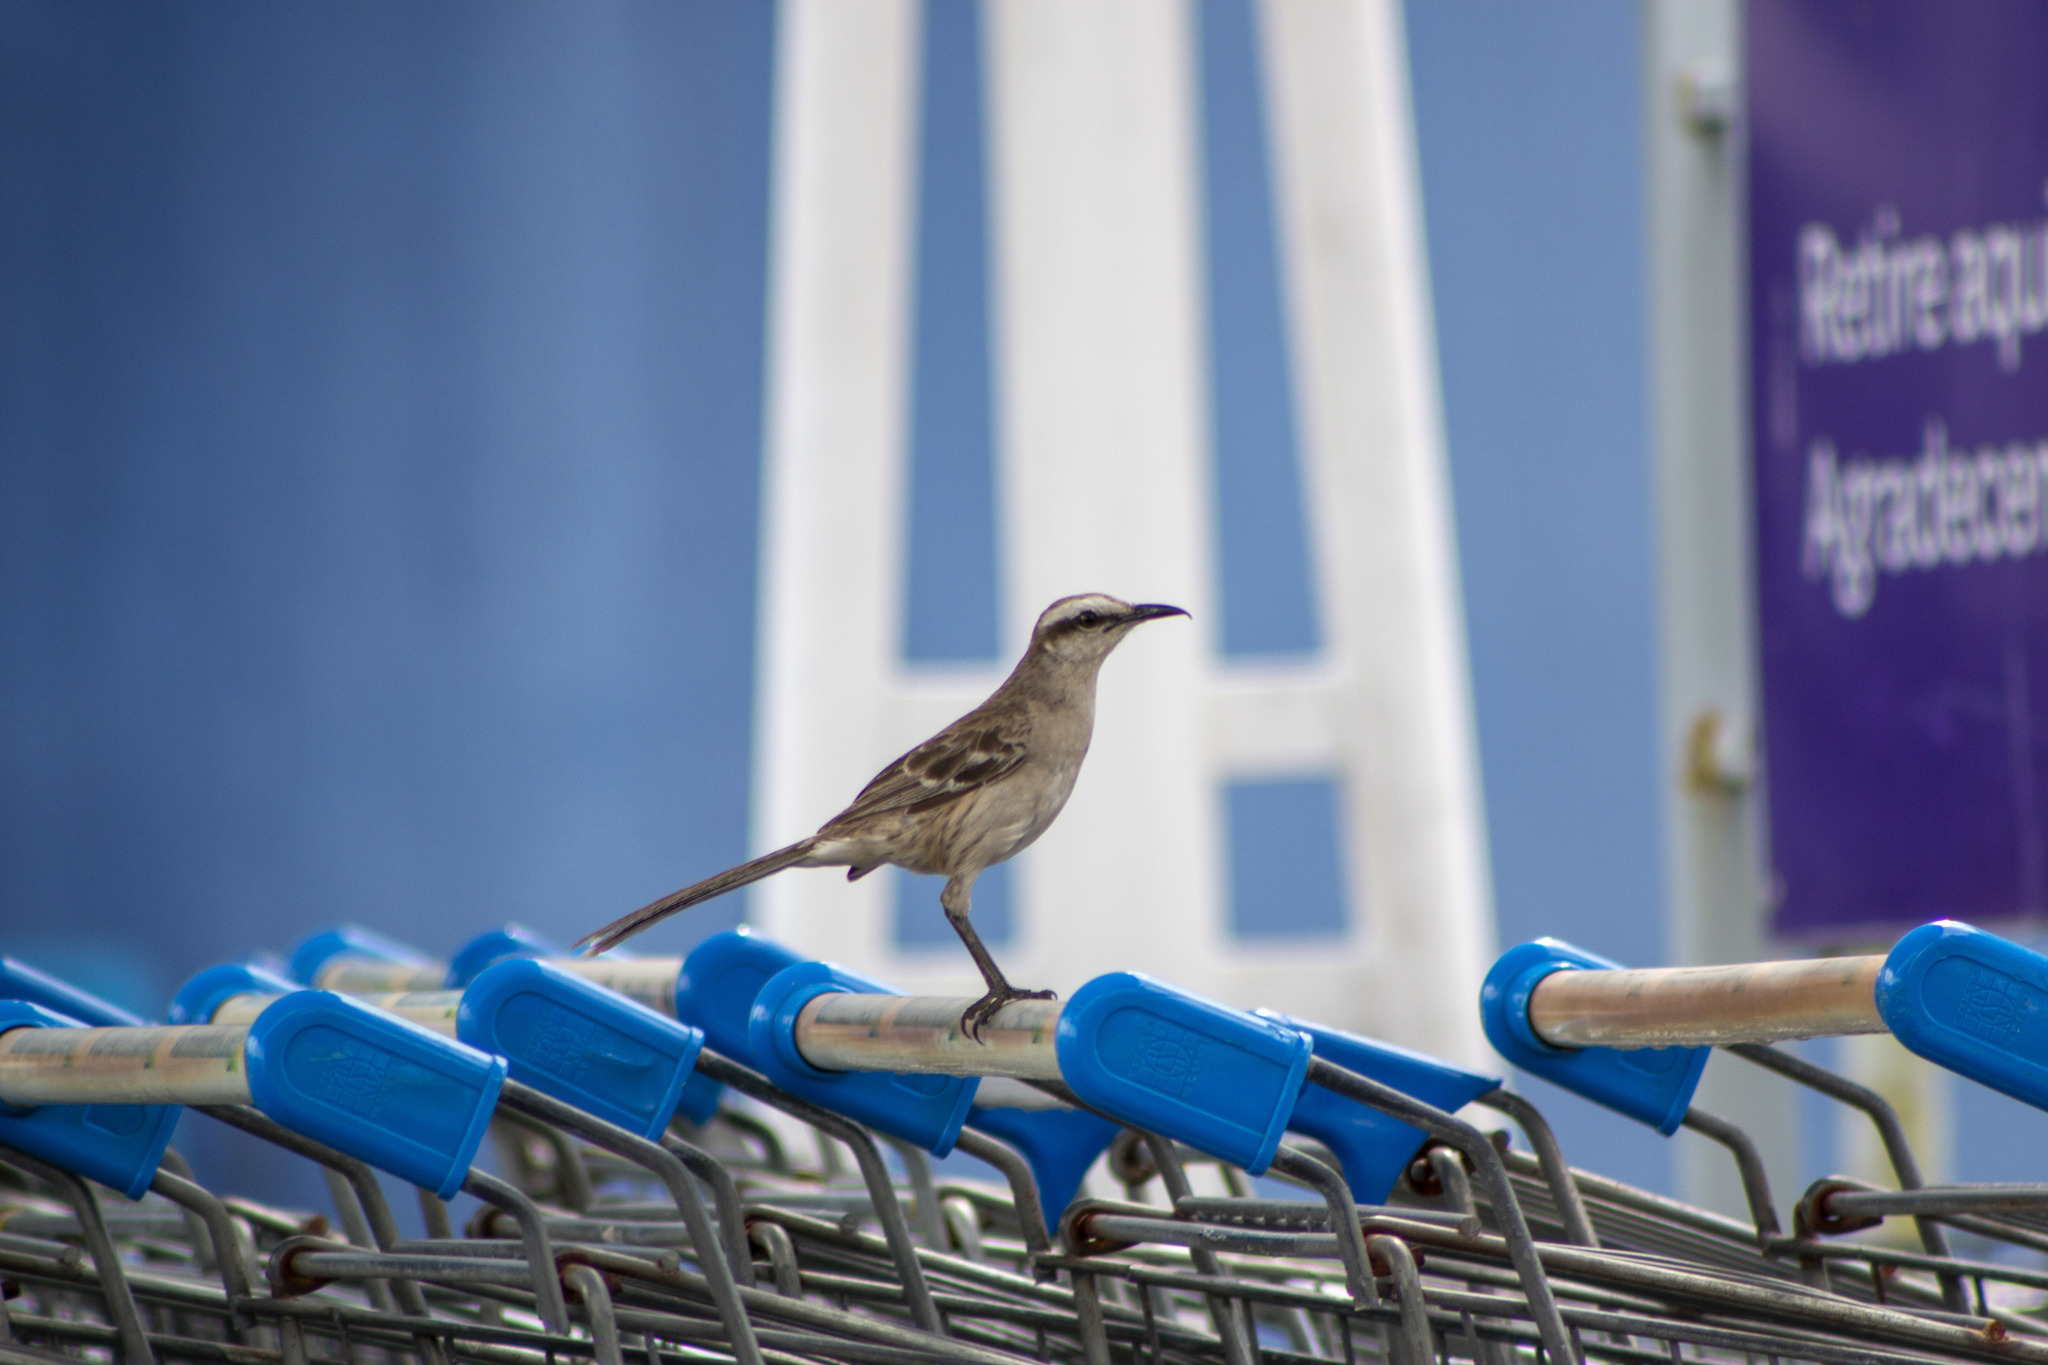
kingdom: Animalia
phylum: Chordata
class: Aves
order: Passeriformes
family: Mimidae
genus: Mimus
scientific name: Mimus saturninus
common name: Chalk-browed mockingbird
